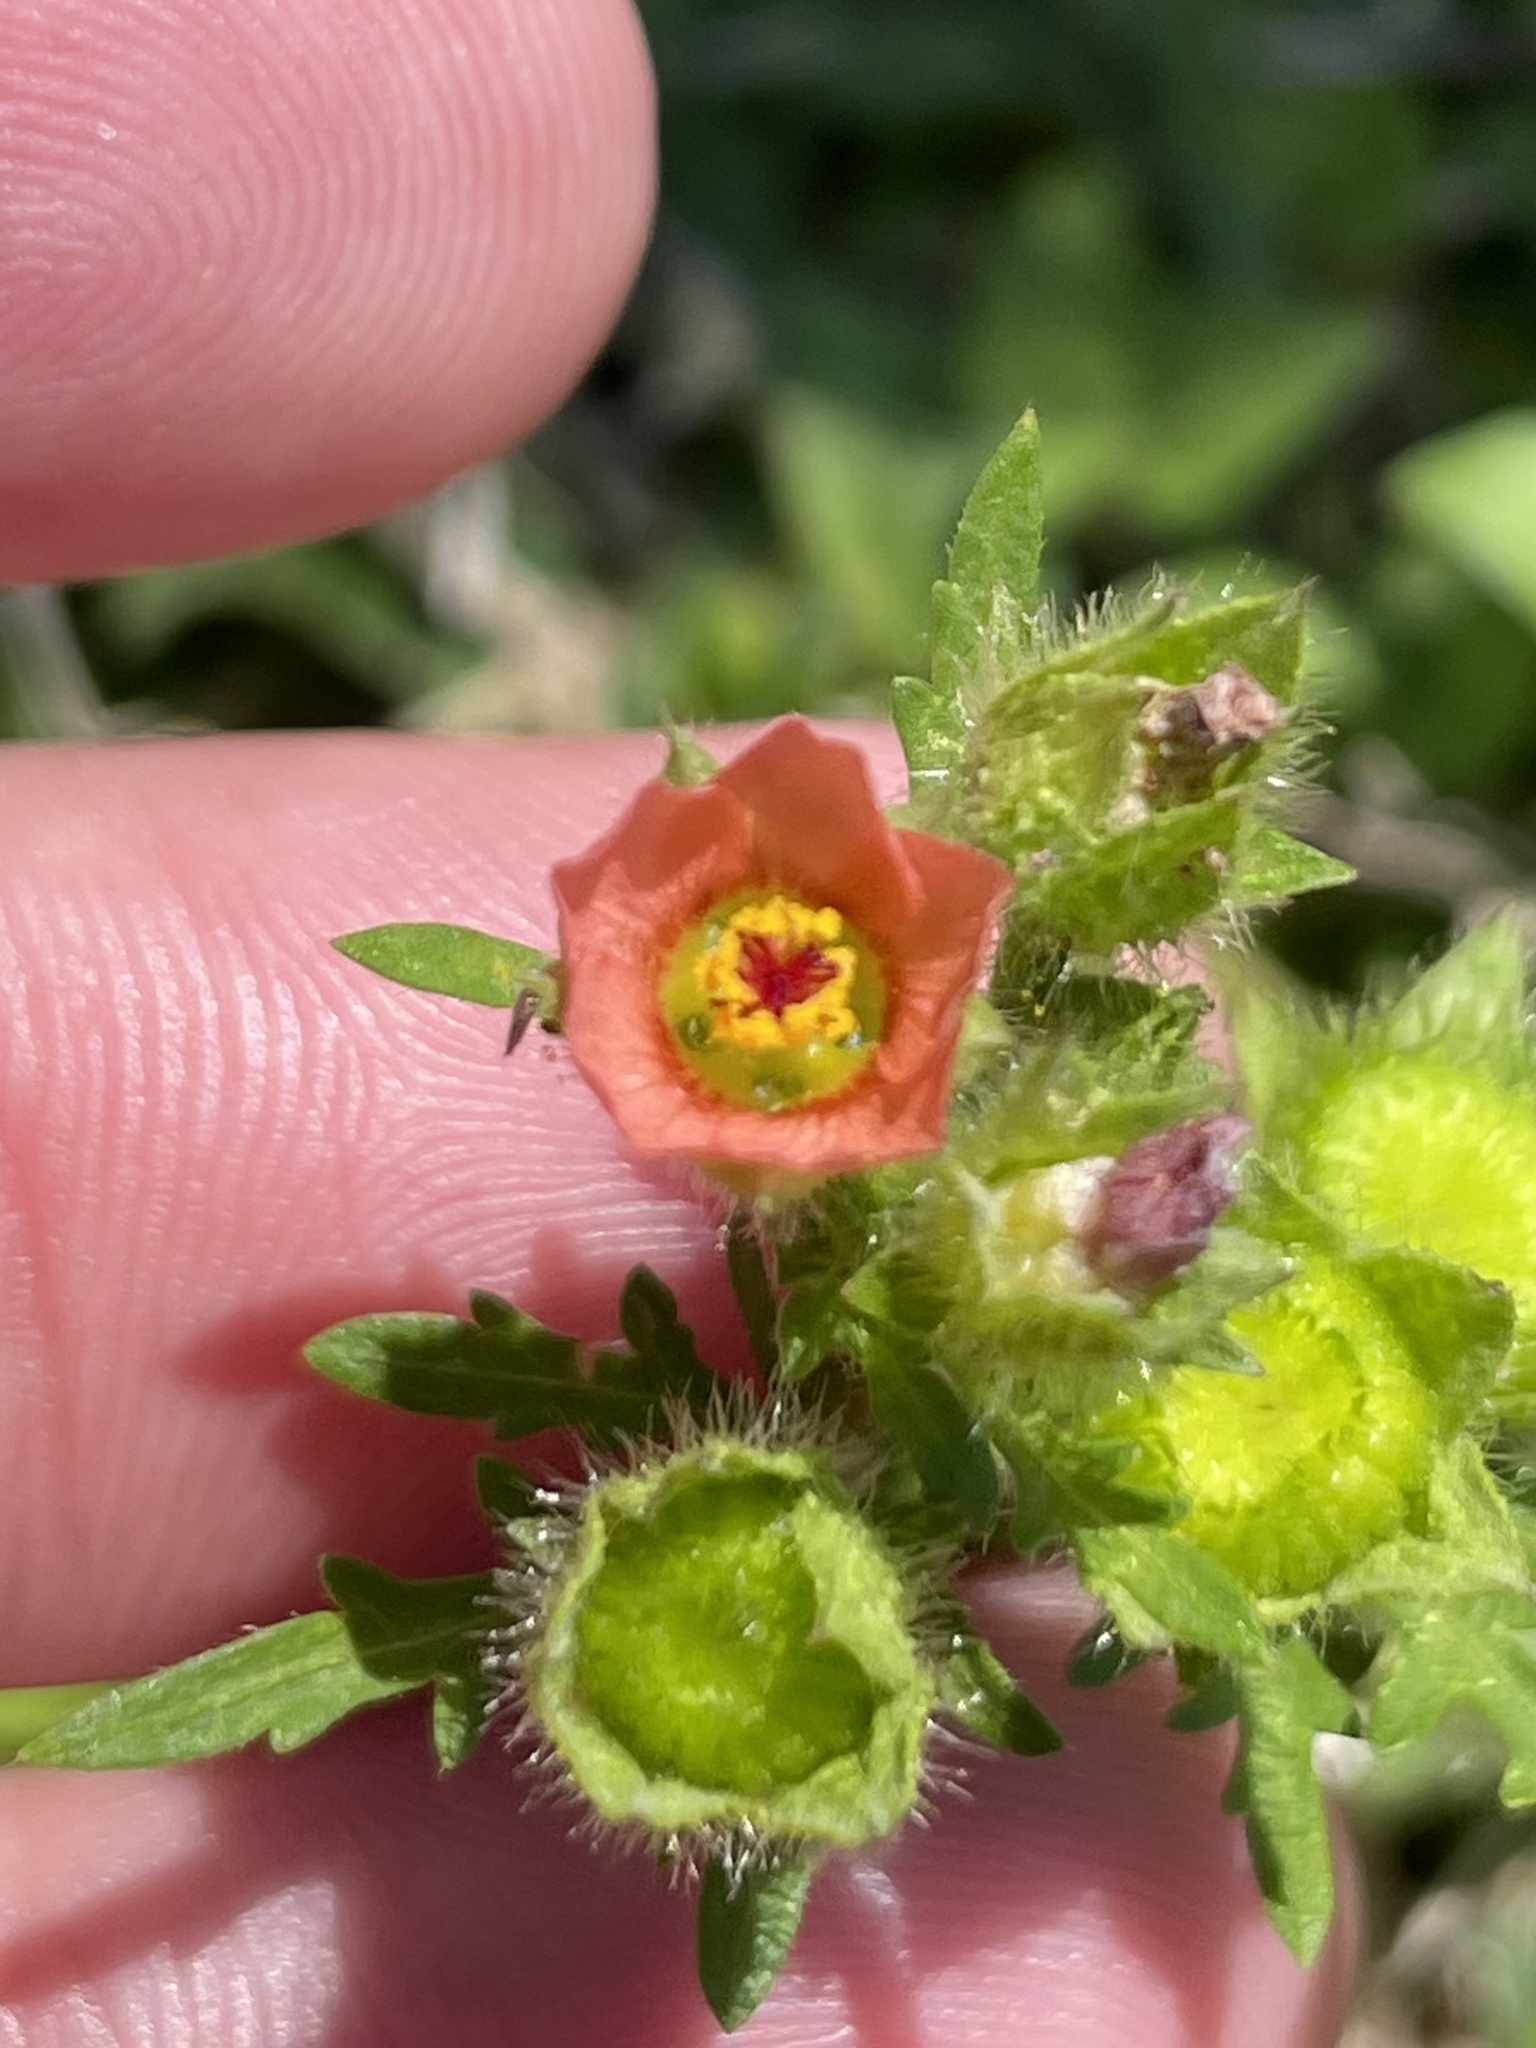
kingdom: Plantae
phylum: Tracheophyta
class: Magnoliopsida
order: Malvales
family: Malvaceae
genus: Modiola
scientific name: Modiola caroliniana
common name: Carolina bristlemallow
